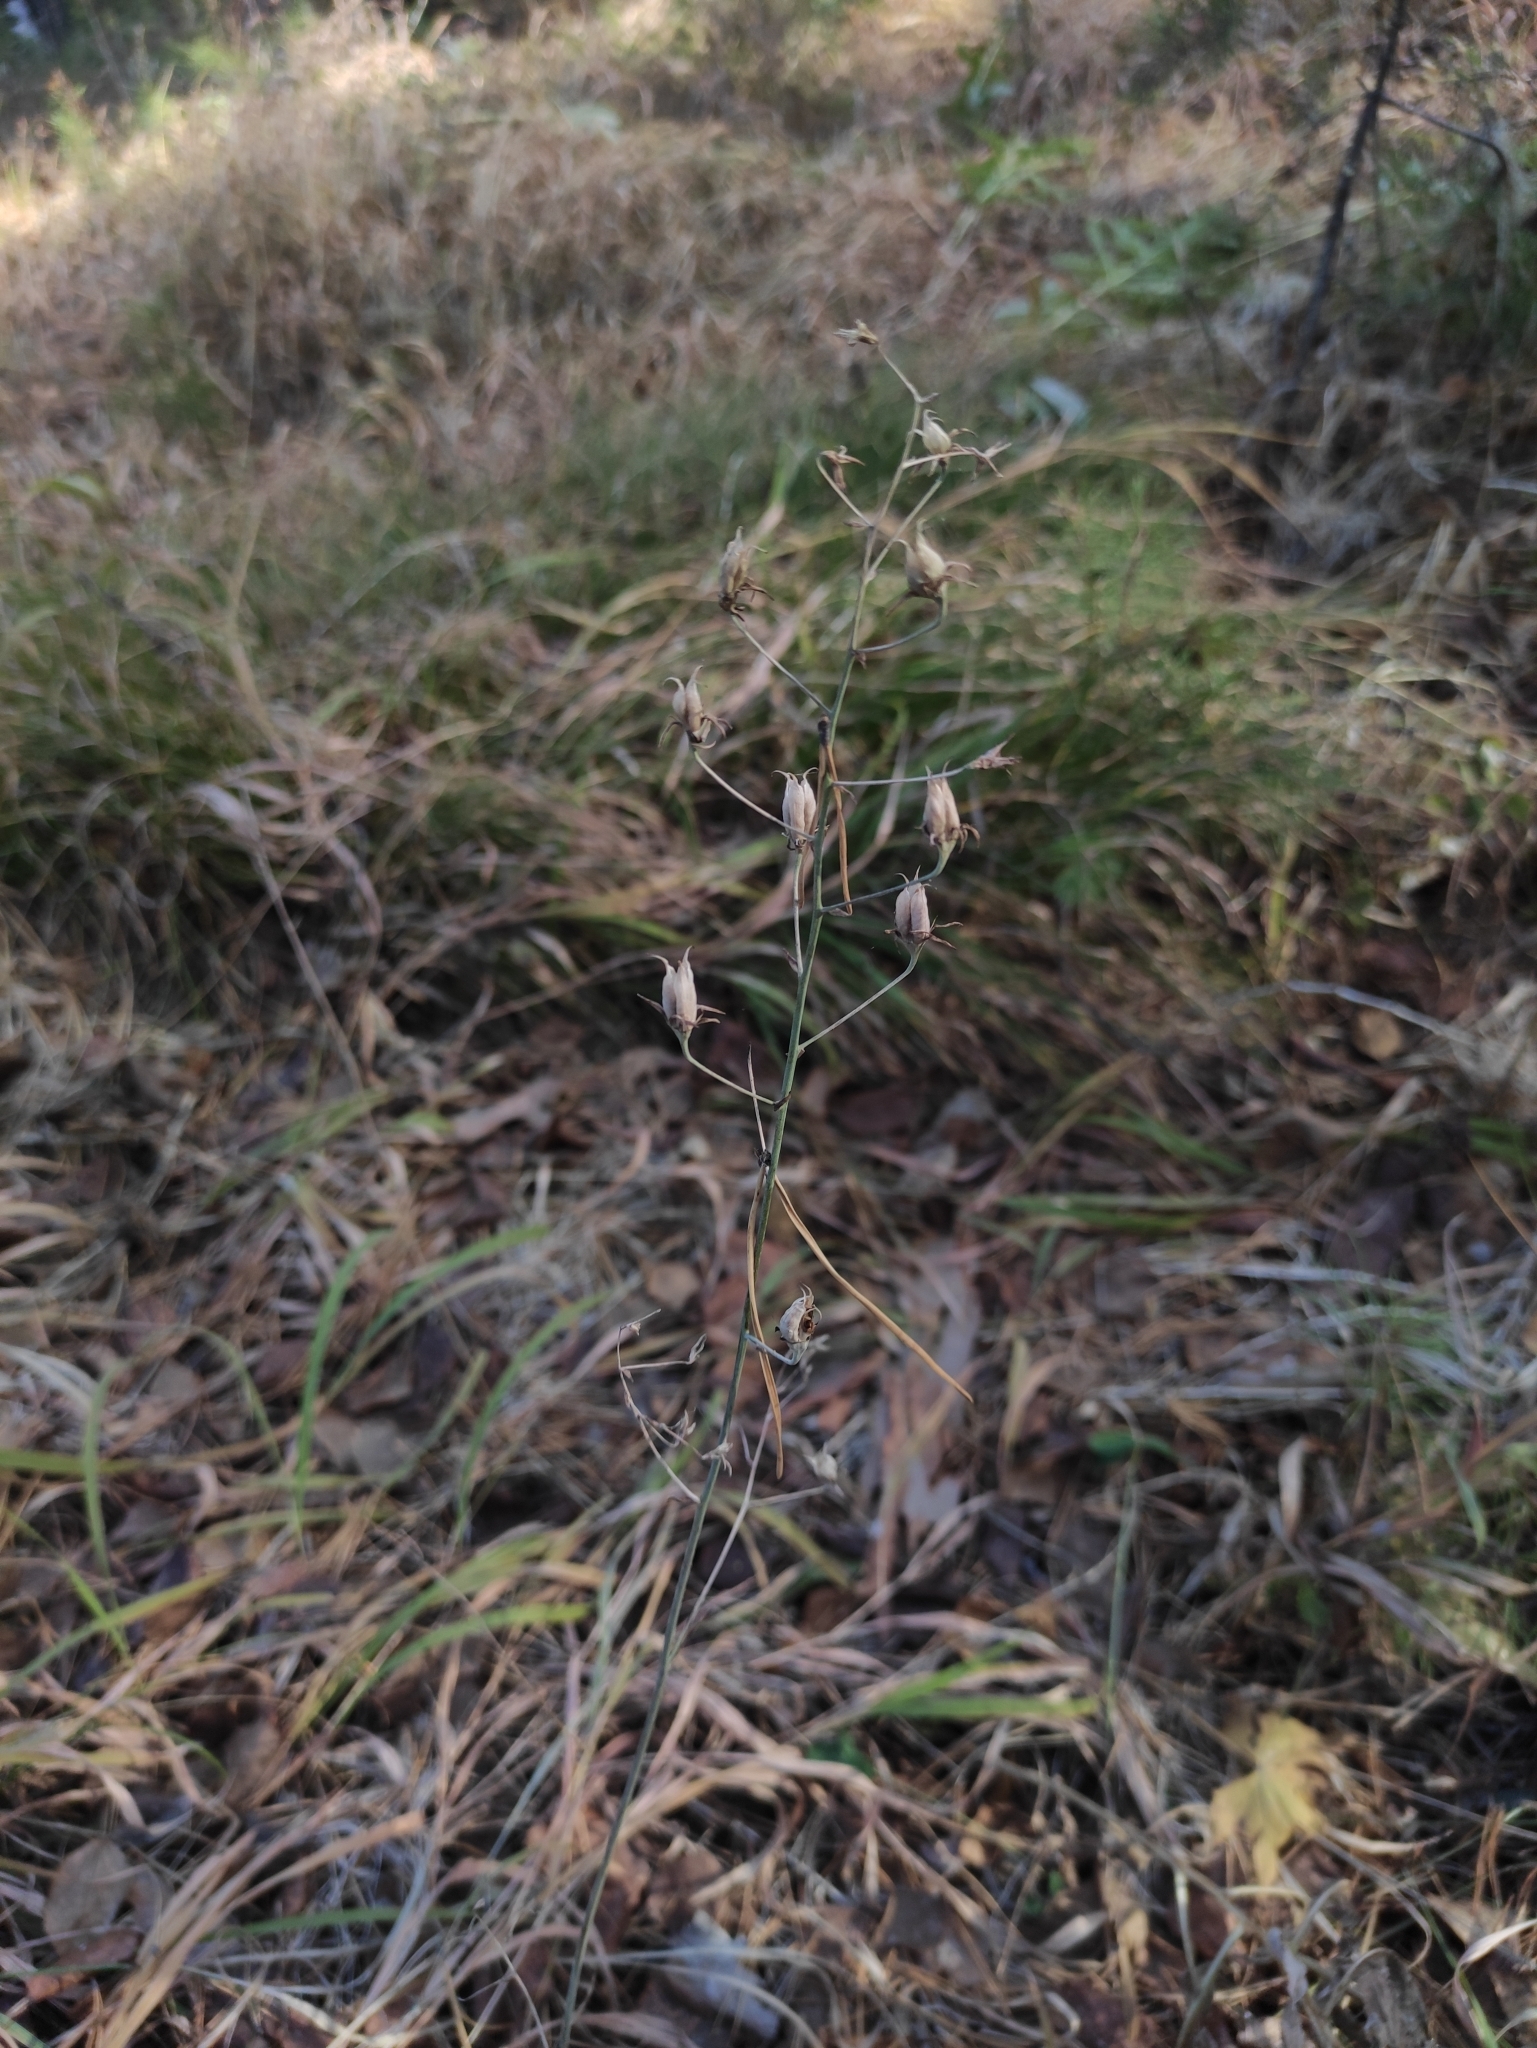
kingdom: Plantae
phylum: Tracheophyta
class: Liliopsida
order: Liliales
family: Melanthiaceae
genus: Anticlea
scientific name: Anticlea sibirica
